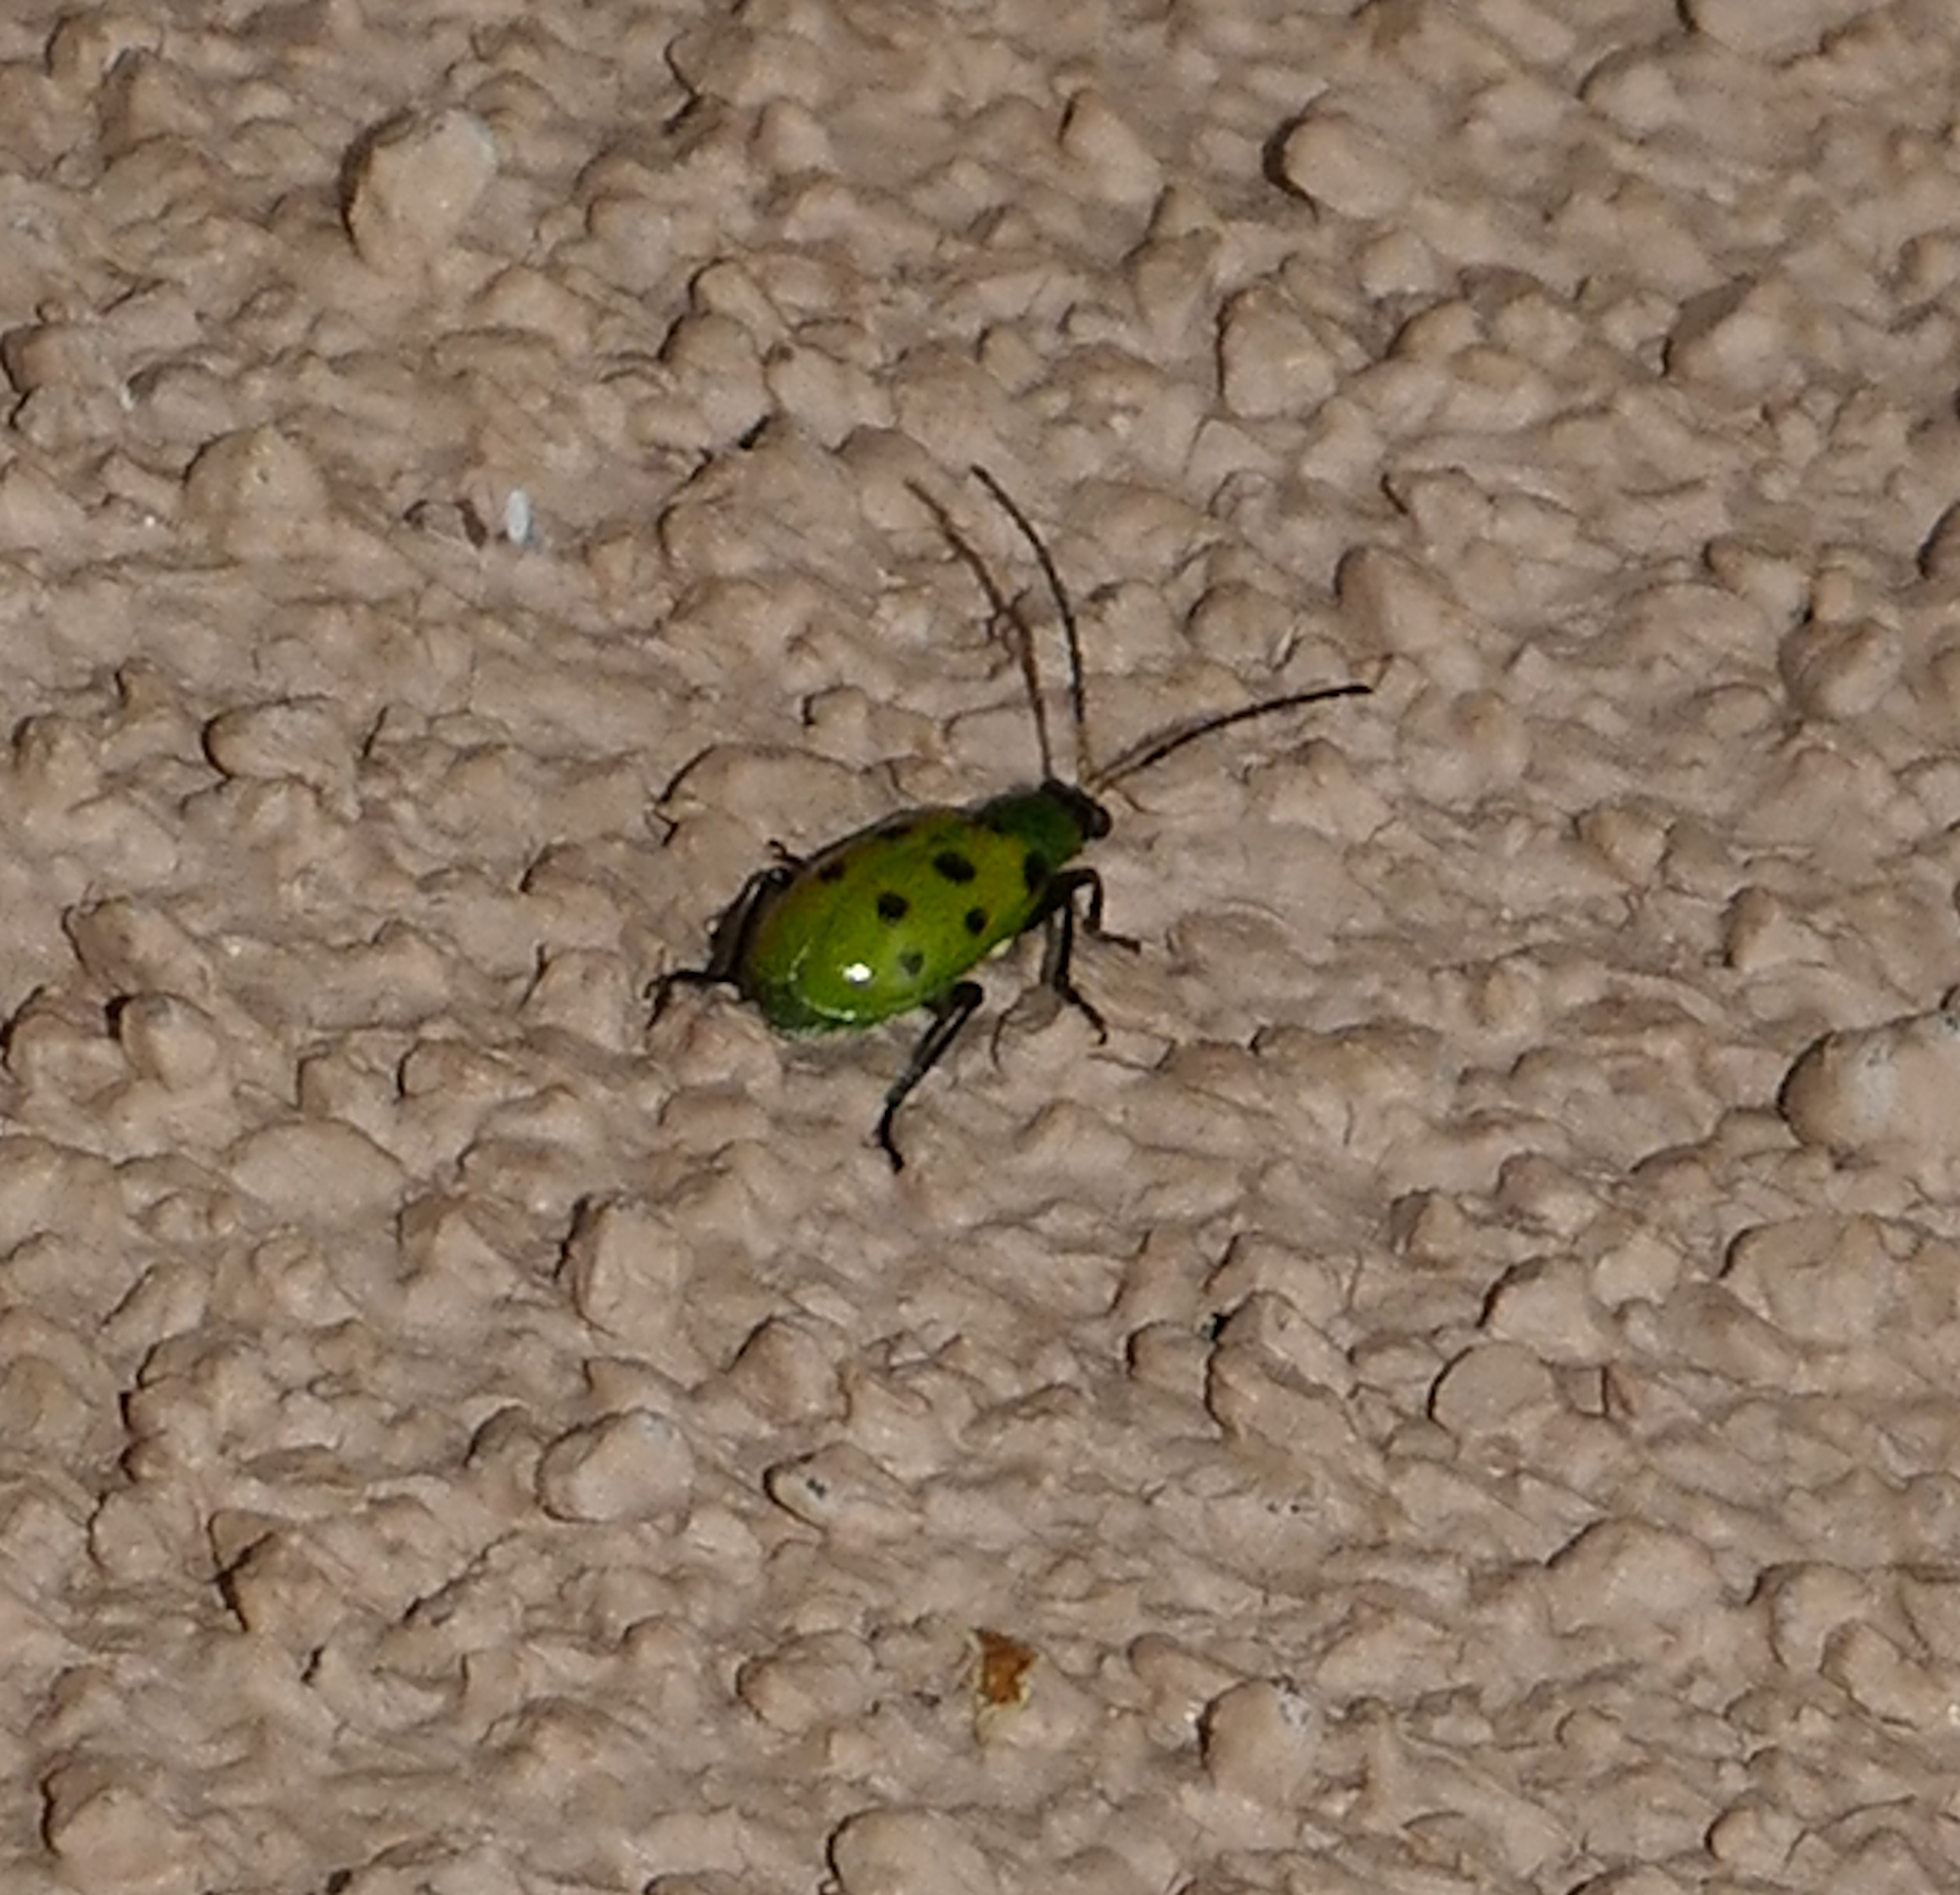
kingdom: Animalia
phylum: Arthropoda
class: Insecta
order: Coleoptera
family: Chrysomelidae
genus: Diabrotica
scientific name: Diabrotica undecimpunctata
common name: Spotted cucumber beetle
